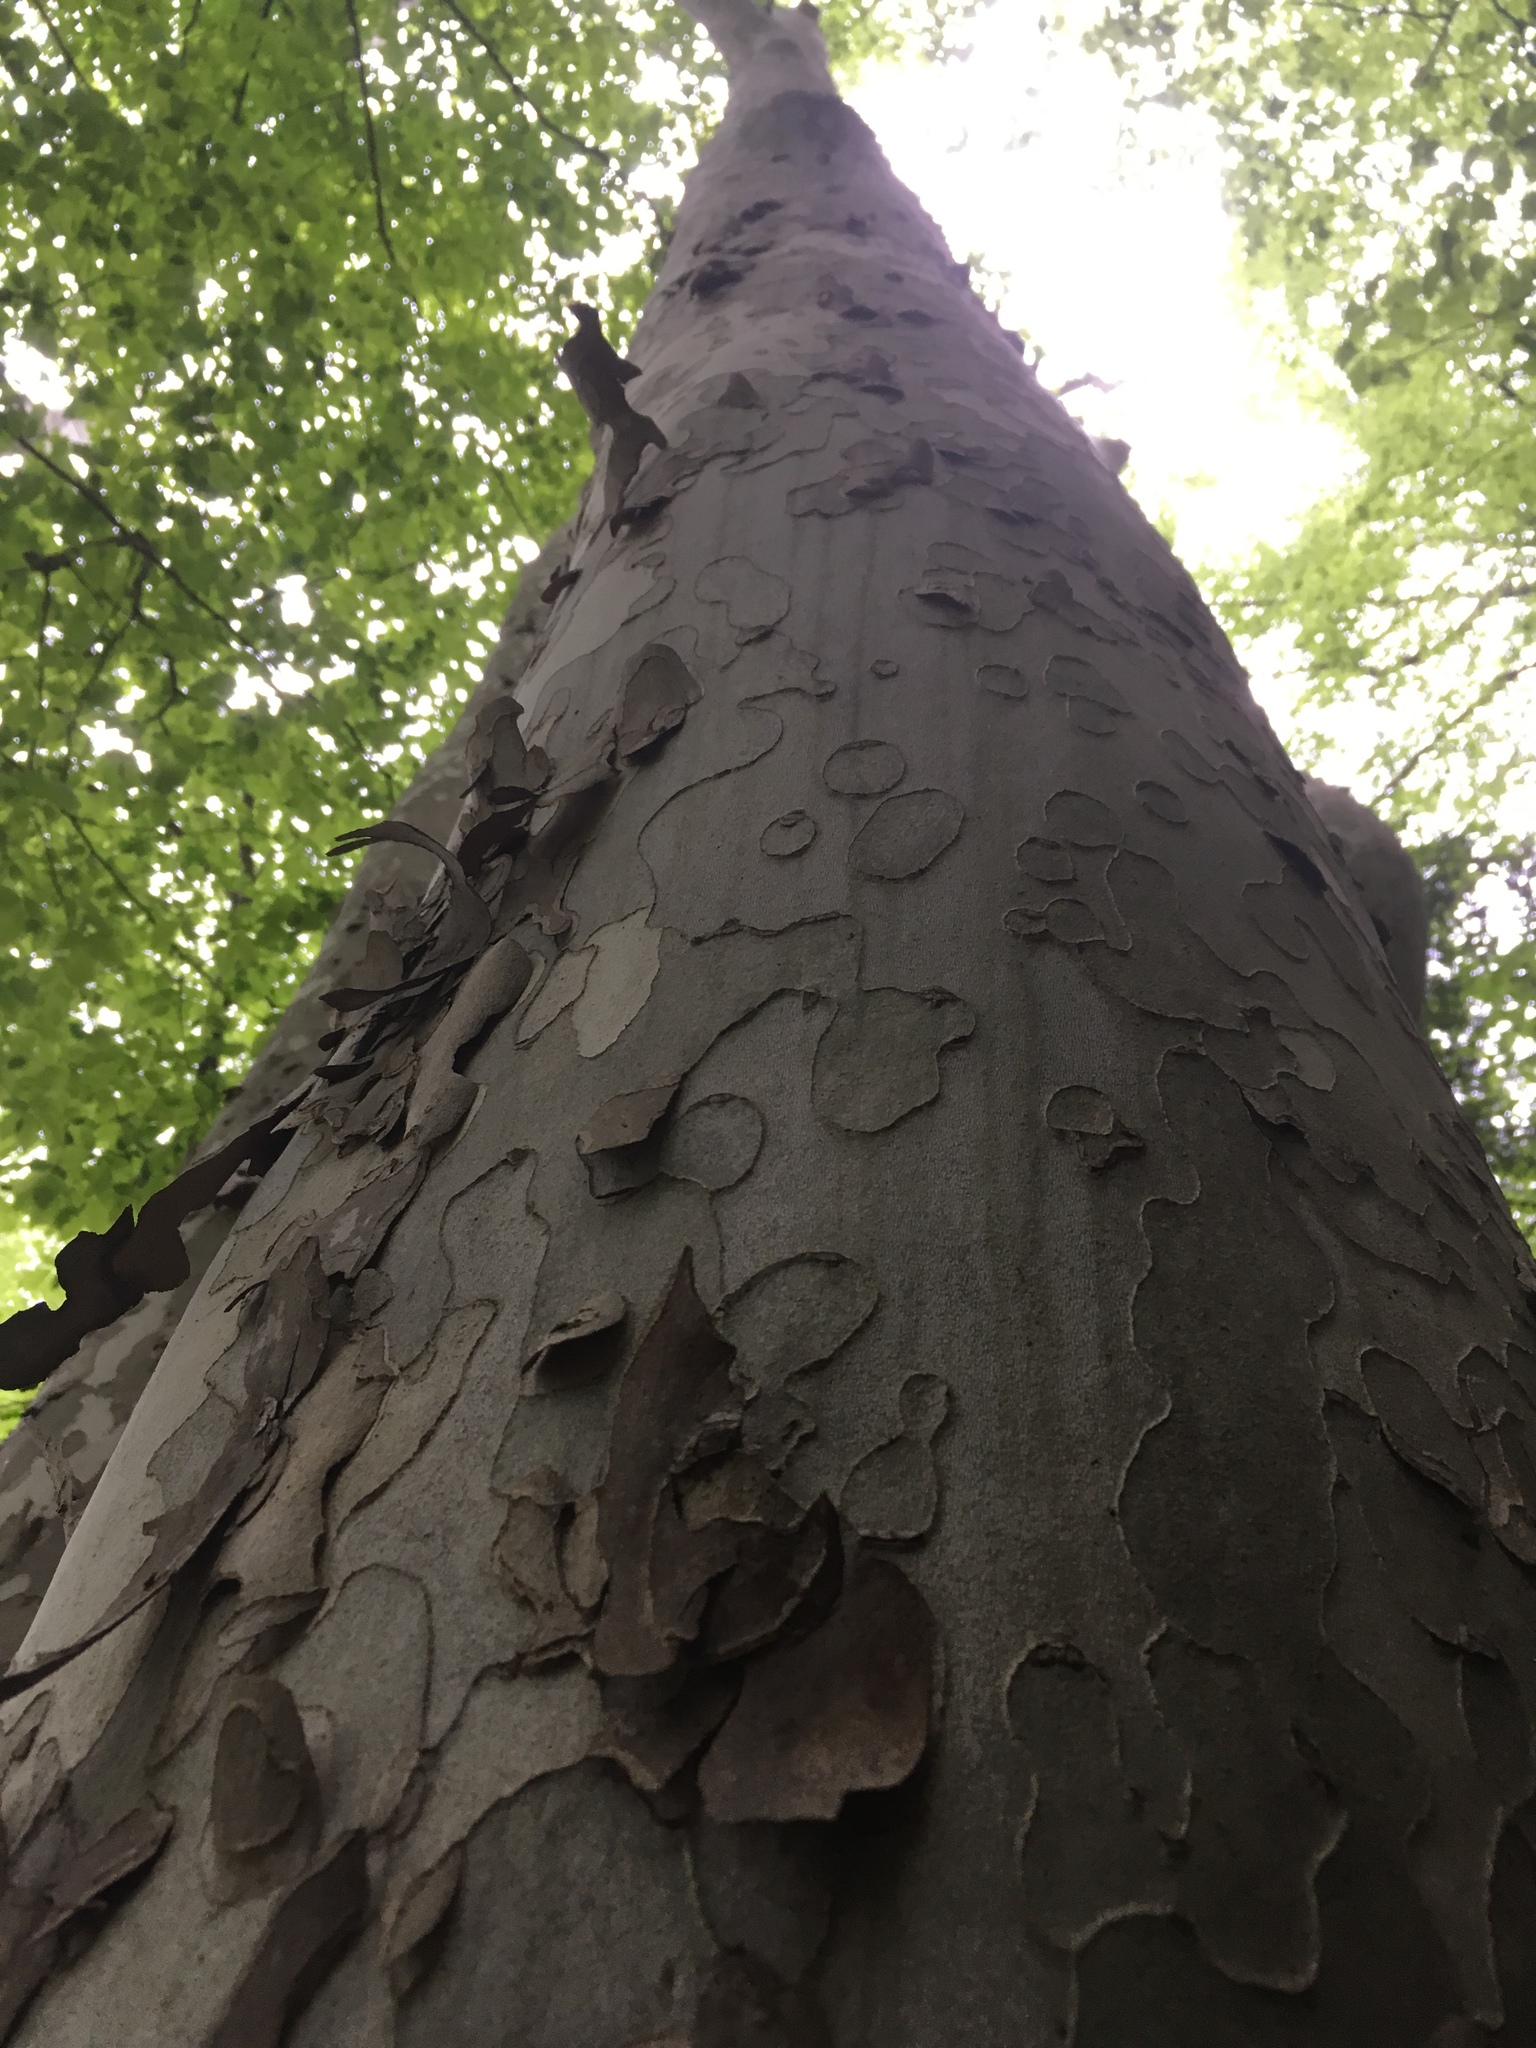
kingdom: Plantae
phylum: Tracheophyta
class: Magnoliopsida
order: Proteales
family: Platanaceae
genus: Platanus
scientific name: Platanus occidentalis
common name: American sycamore
